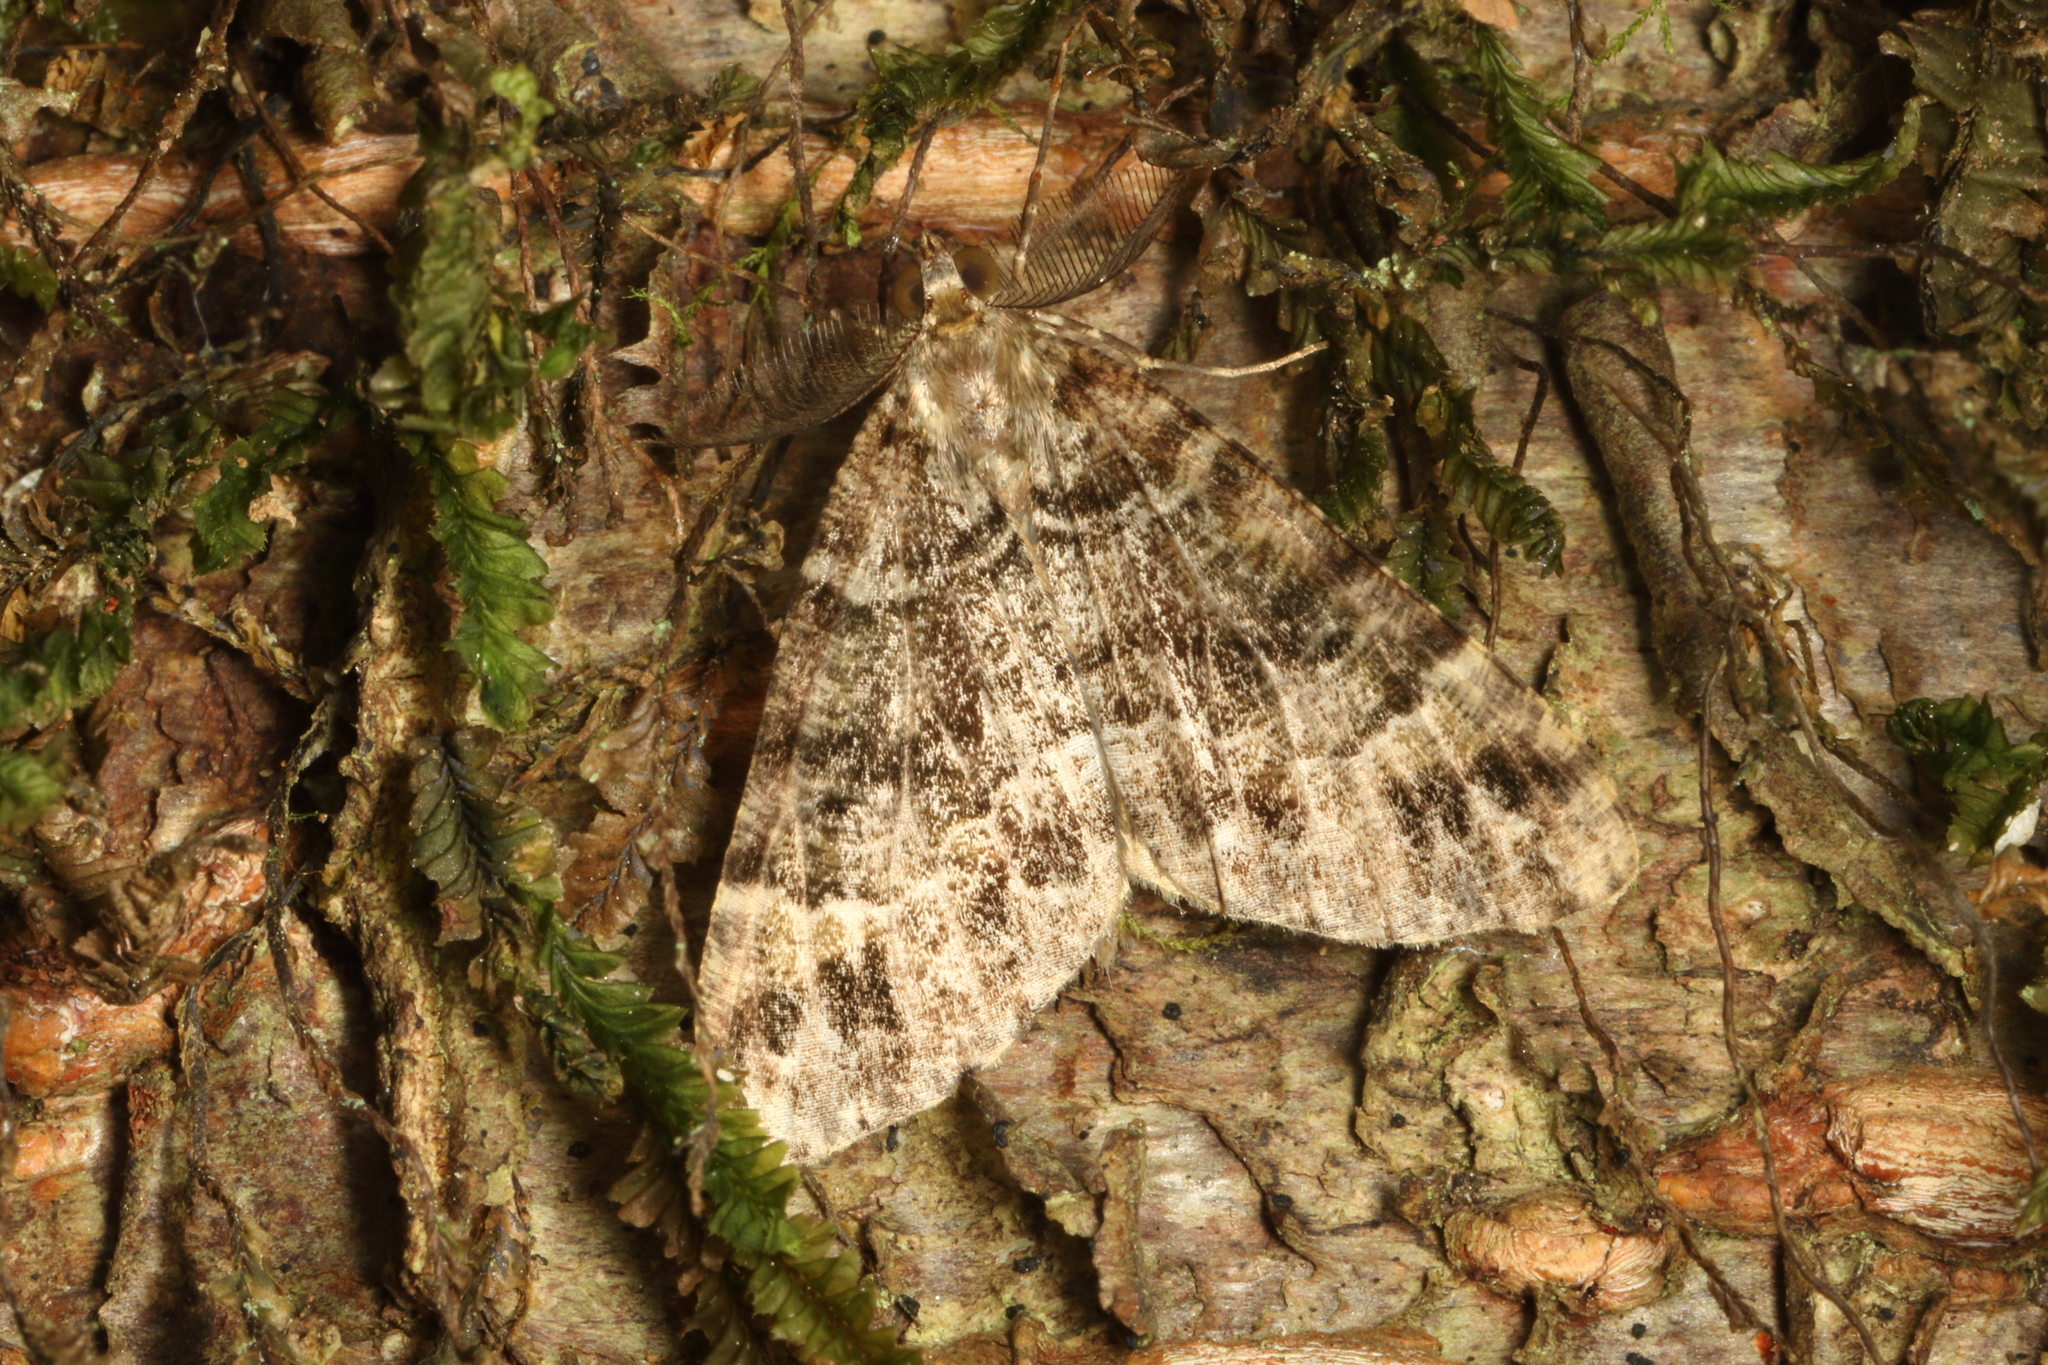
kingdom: Animalia
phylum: Arthropoda
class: Insecta
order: Lepidoptera
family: Geometridae
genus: Pseudocoremia
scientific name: Pseudocoremia productata
